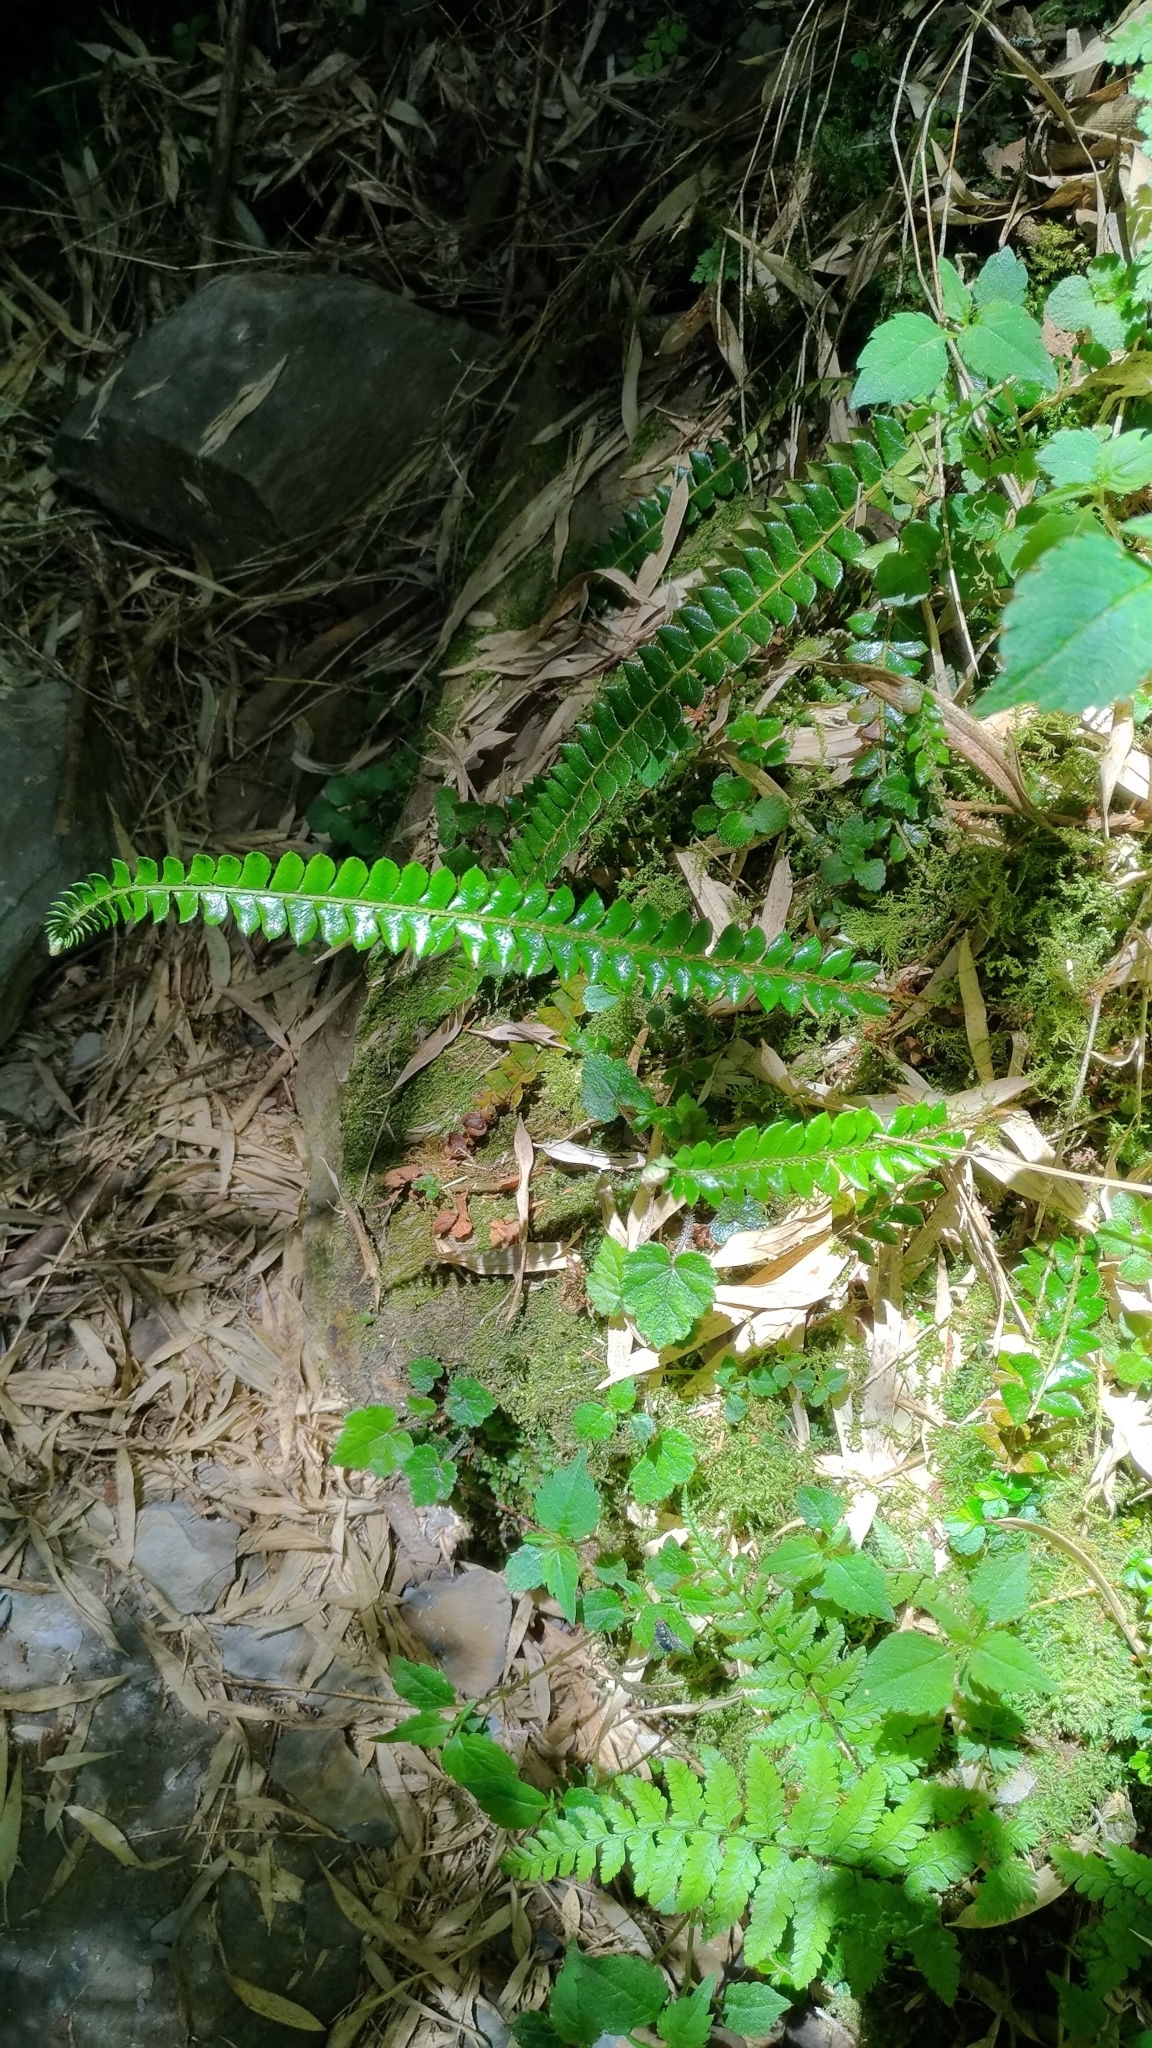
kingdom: Plantae
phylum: Tracheophyta
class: Polypodiopsida
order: Polypodiales
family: Dryopteridaceae
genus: Polystichum
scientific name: Polystichum levingei
